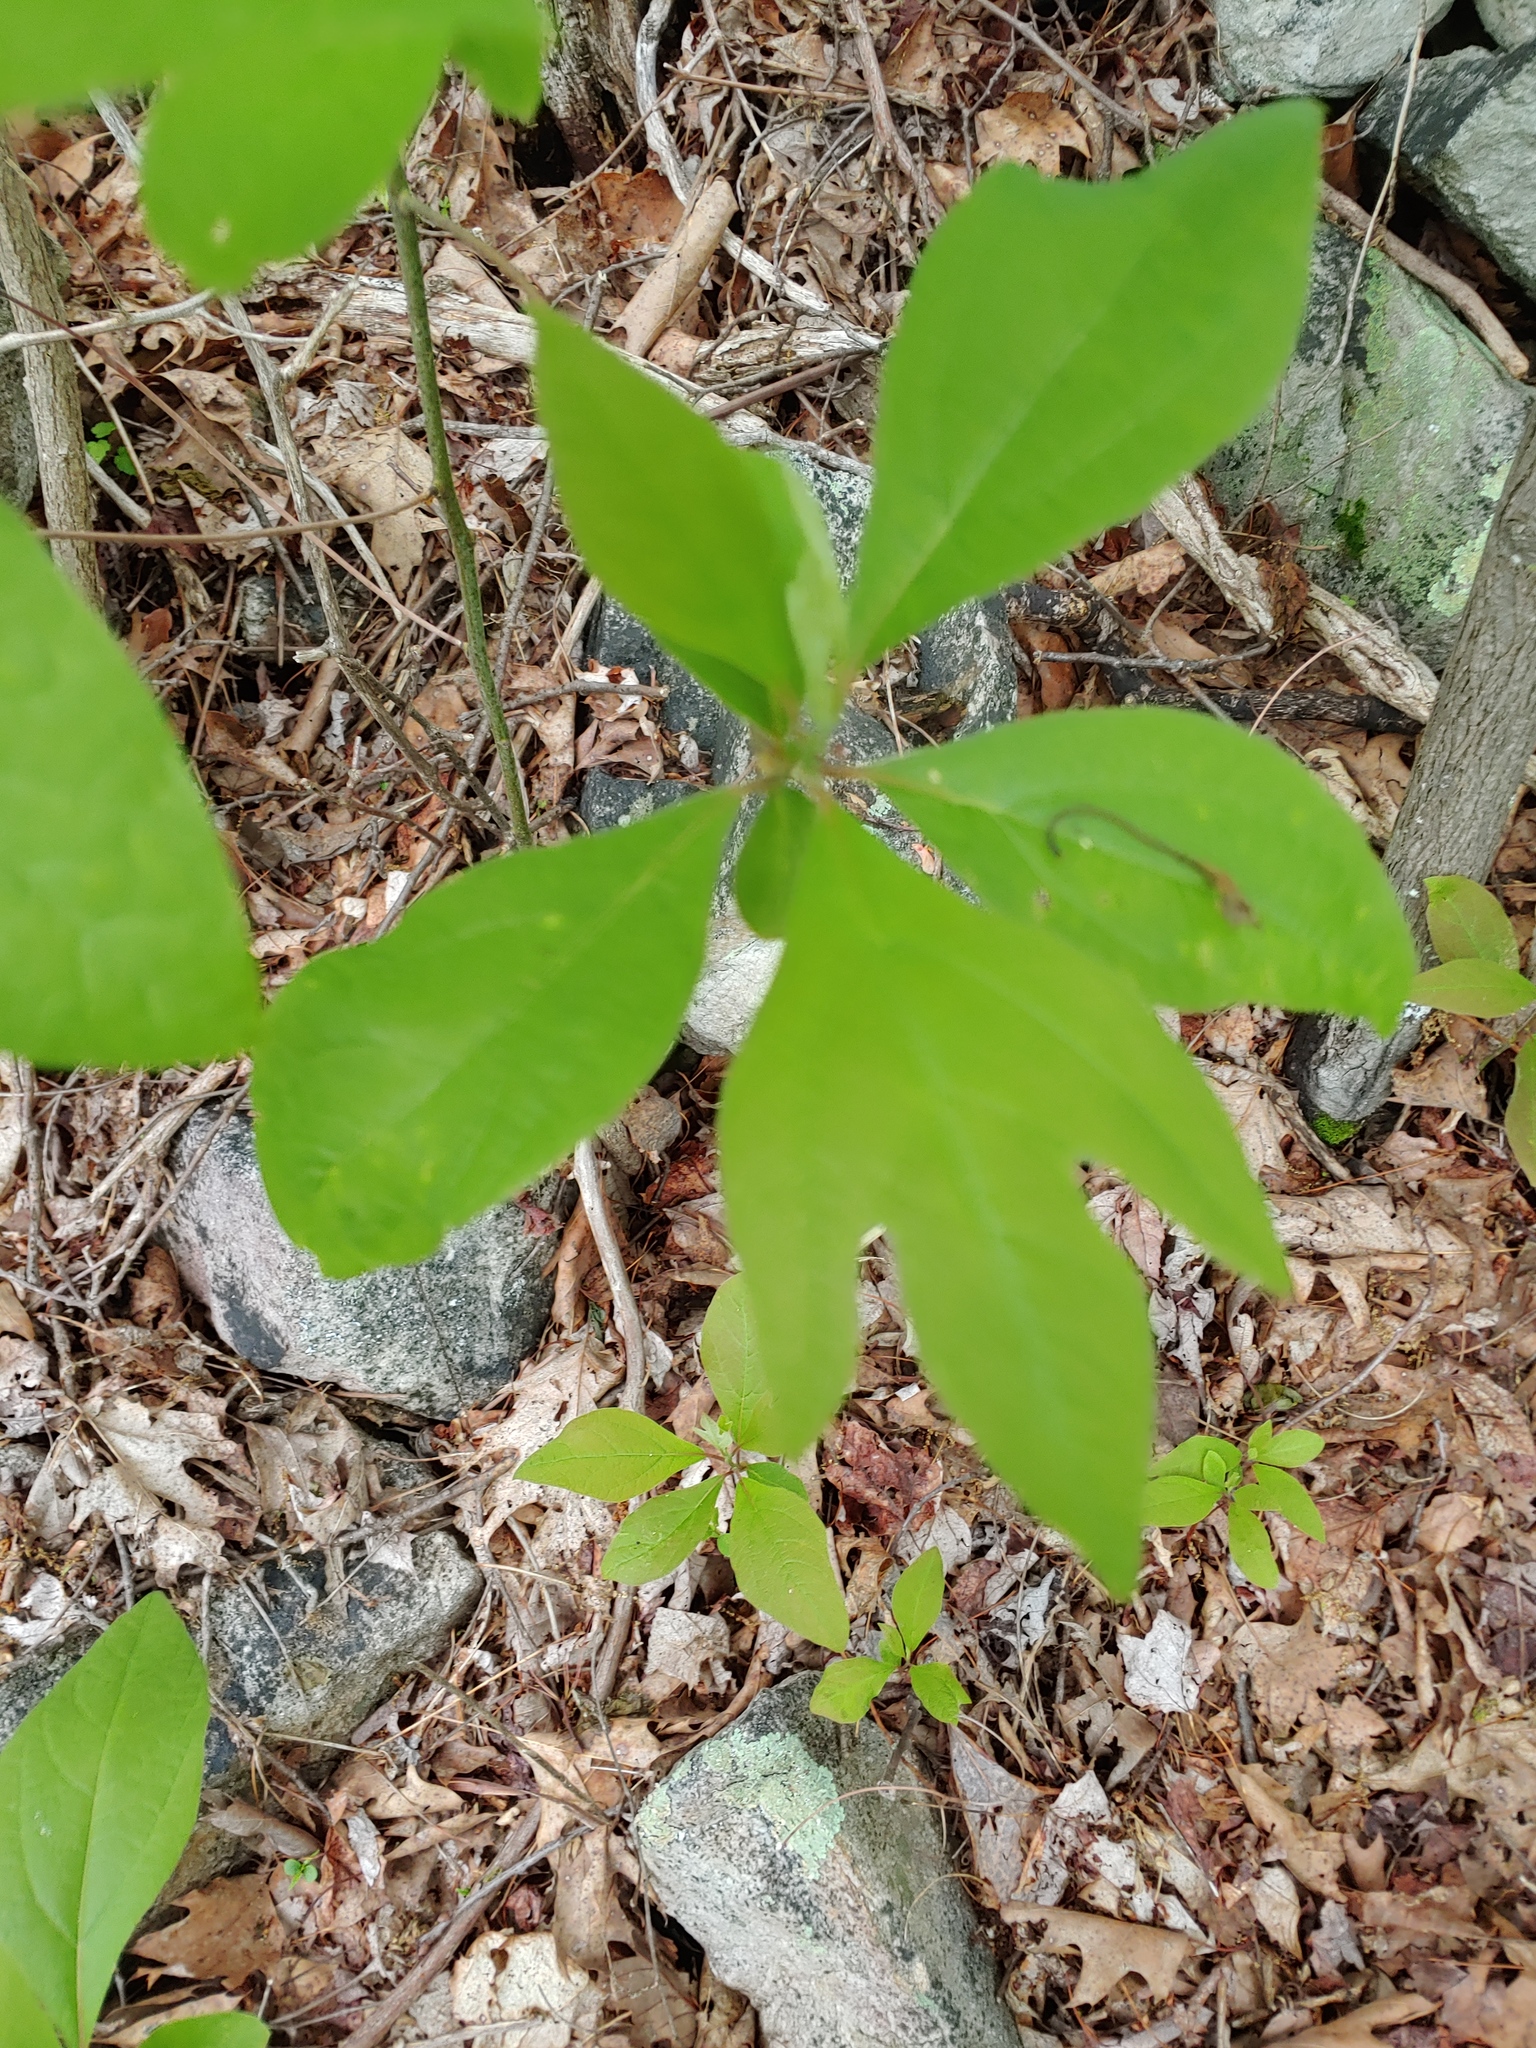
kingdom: Plantae
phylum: Tracheophyta
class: Magnoliopsida
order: Laurales
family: Lauraceae
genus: Sassafras
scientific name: Sassafras albidum
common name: Sassafras
